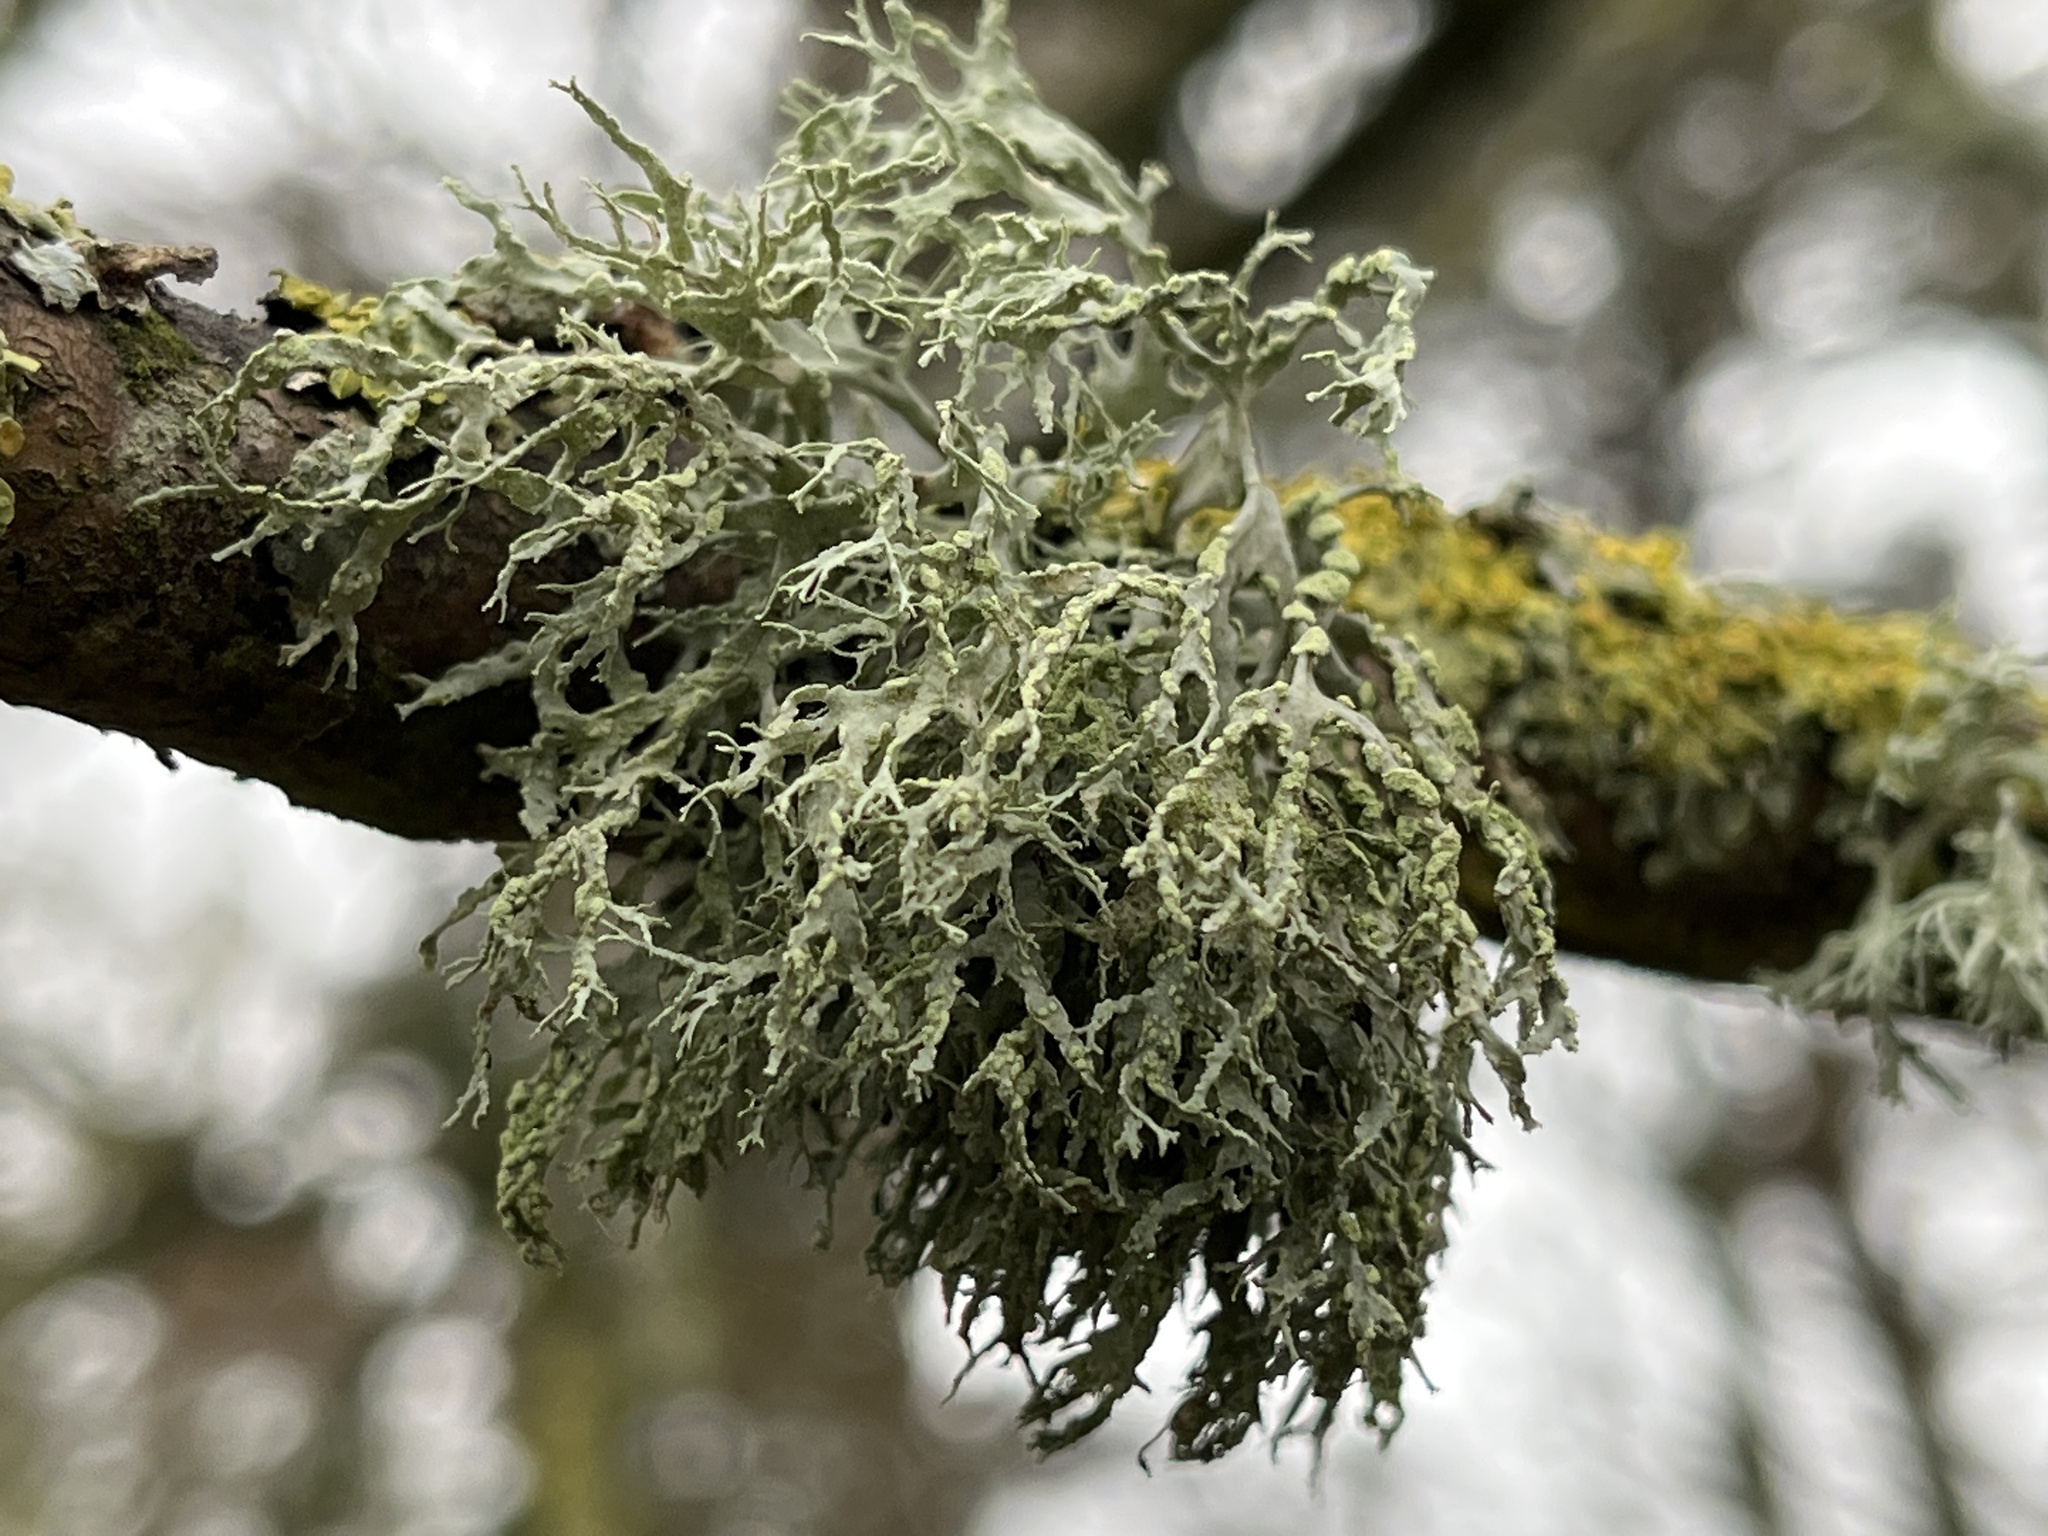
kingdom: Fungi
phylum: Ascomycota
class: Lecanoromycetes
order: Lecanorales
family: Ramalinaceae
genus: Ramalina
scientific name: Ramalina farinacea
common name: Farinose cartilage lichen
